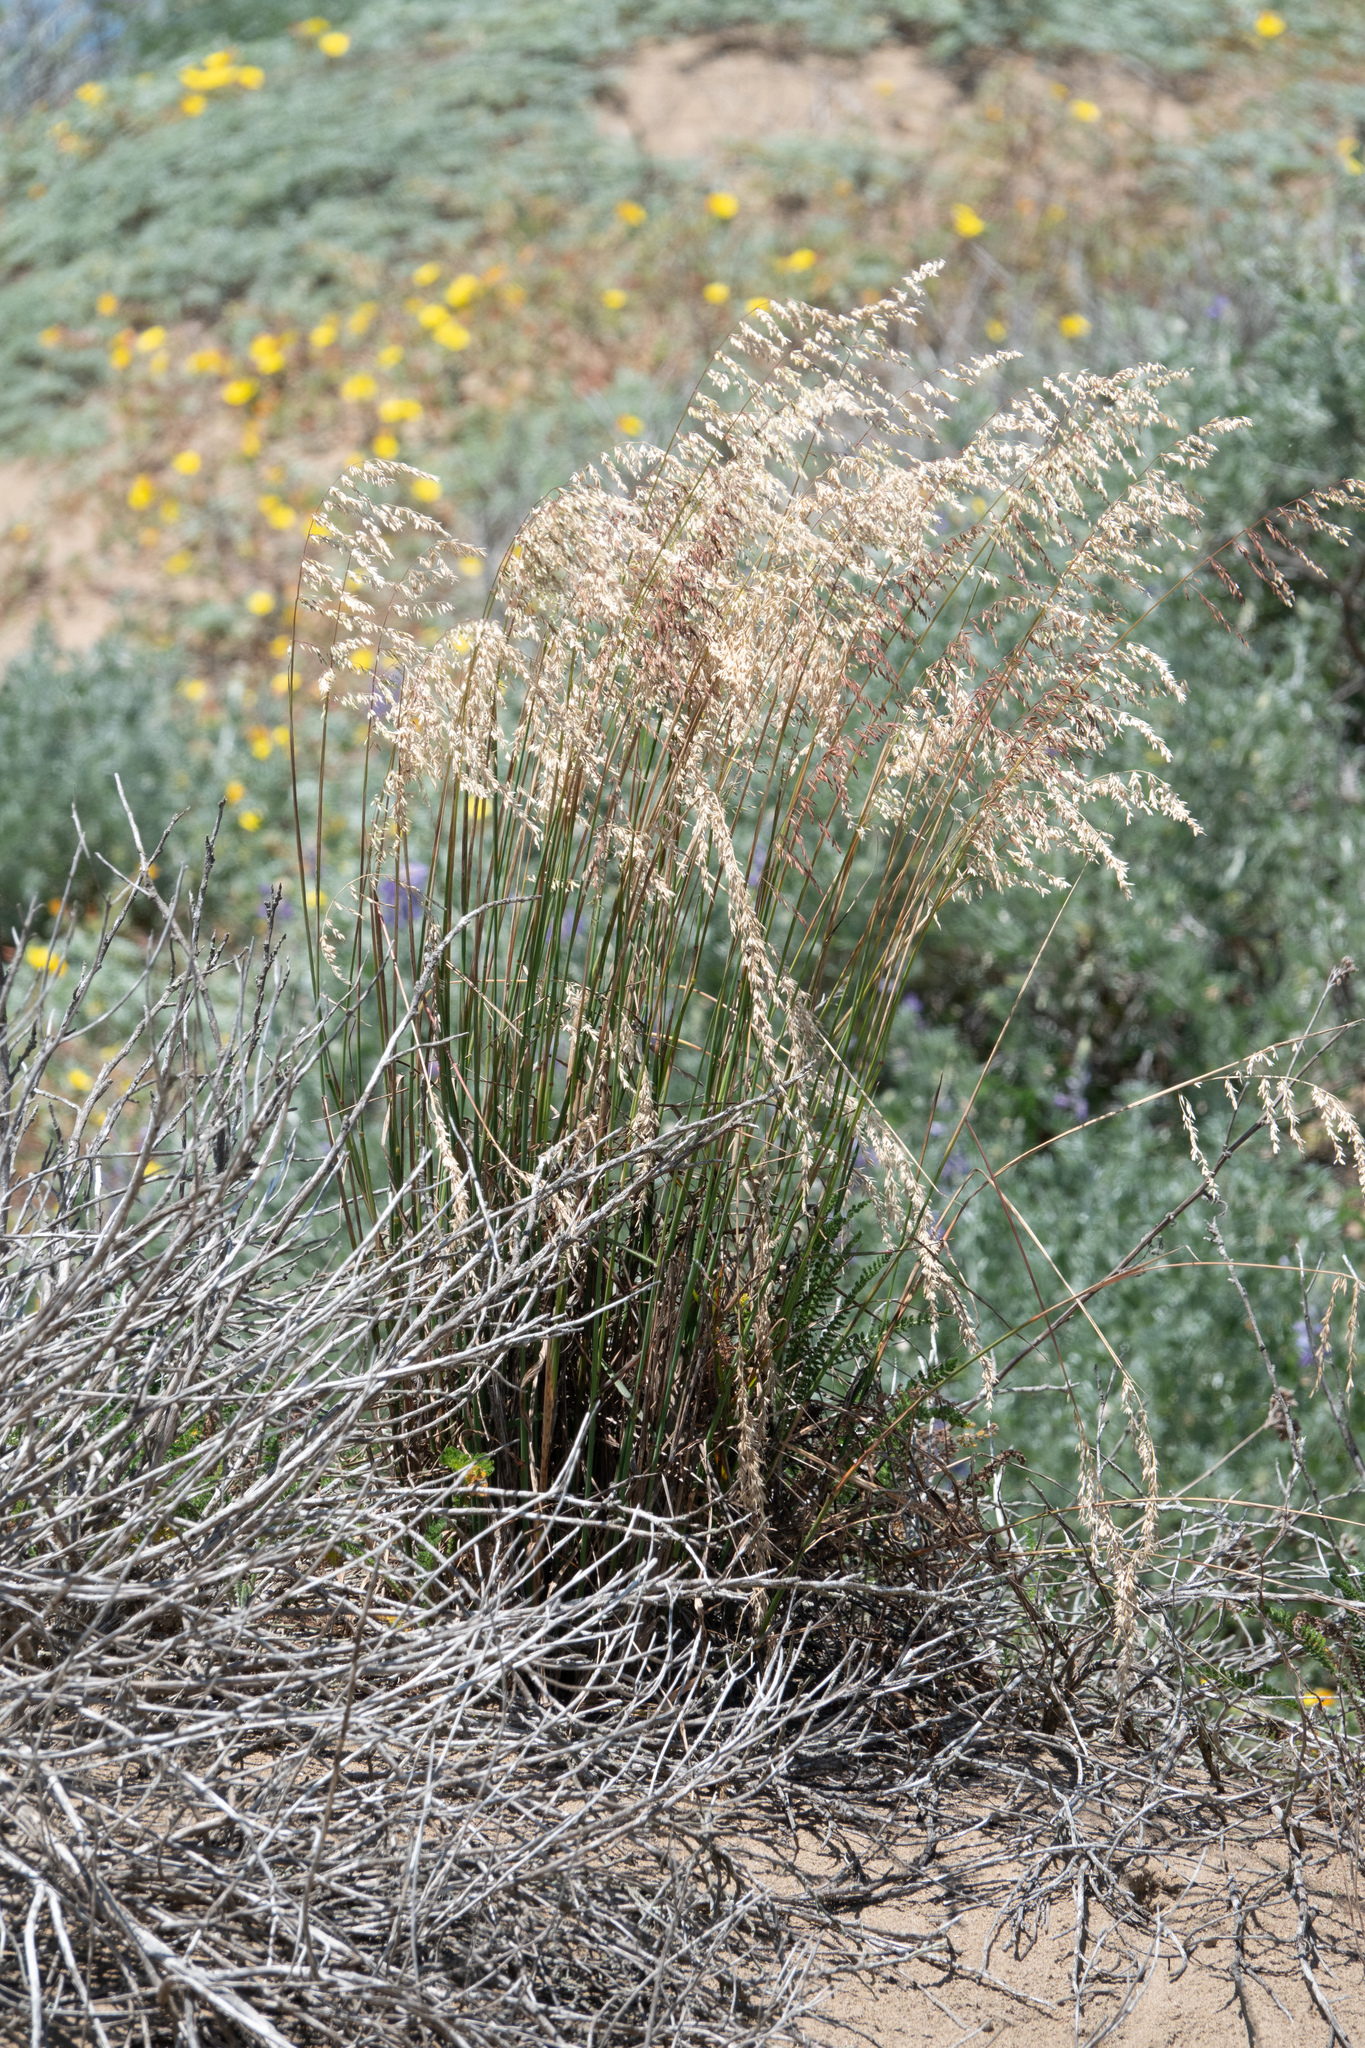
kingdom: Plantae
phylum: Tracheophyta
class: Liliopsida
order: Poales
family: Poaceae
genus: Ehrharta
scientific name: Ehrharta calycina
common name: Perennial veldtgrass
